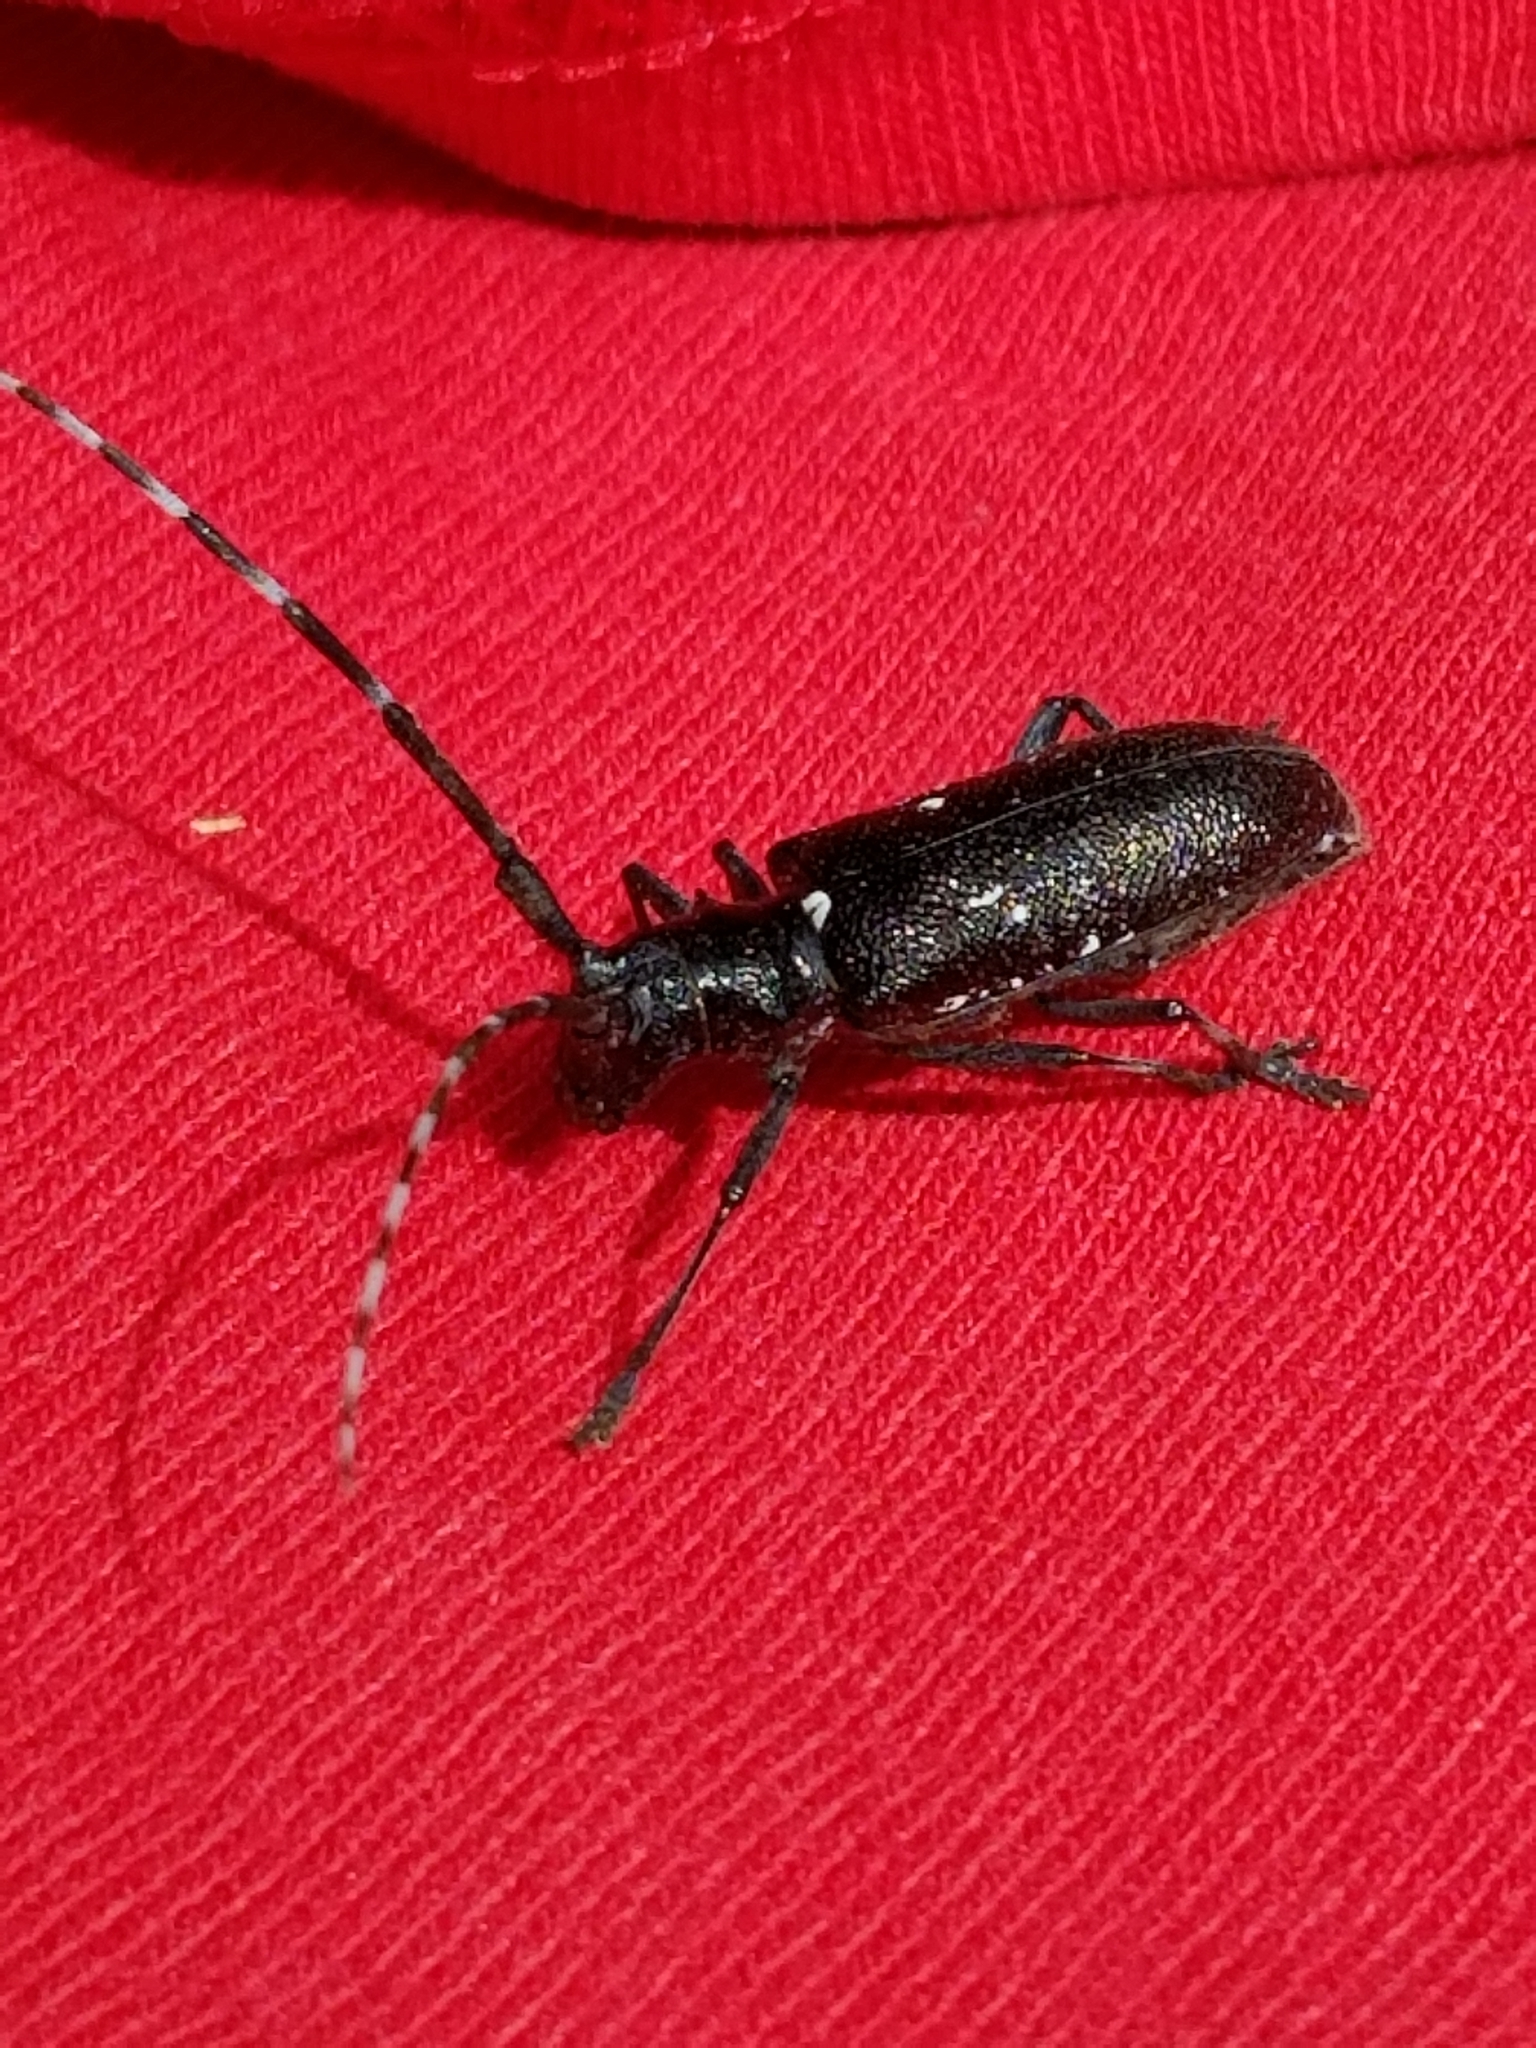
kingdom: Animalia
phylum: Arthropoda
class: Insecta
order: Coleoptera
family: Cerambycidae
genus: Monochamus
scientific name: Monochamus scutellatus
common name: White-spotted sawyer beetle
